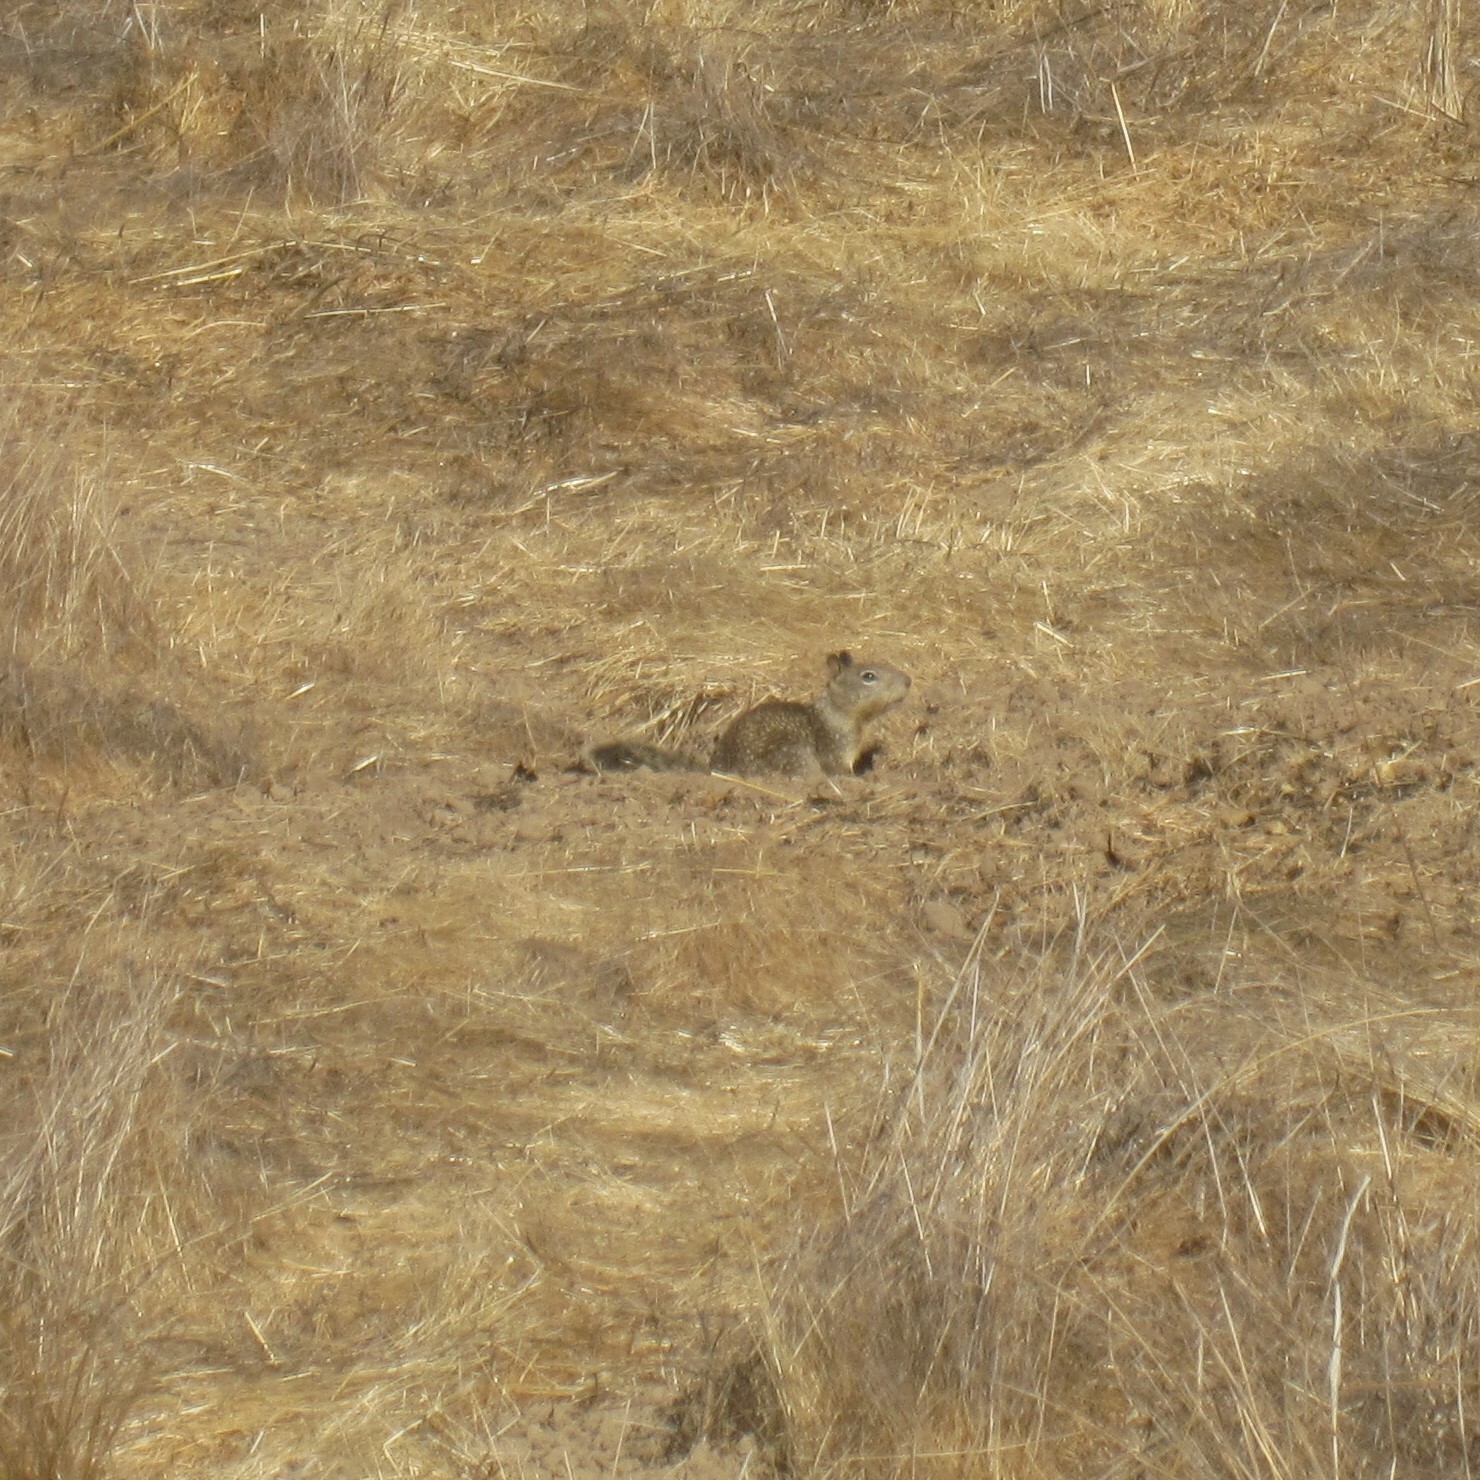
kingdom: Animalia
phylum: Chordata
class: Mammalia
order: Rodentia
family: Sciuridae
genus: Otospermophilus
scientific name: Otospermophilus beecheyi
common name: California ground squirrel
